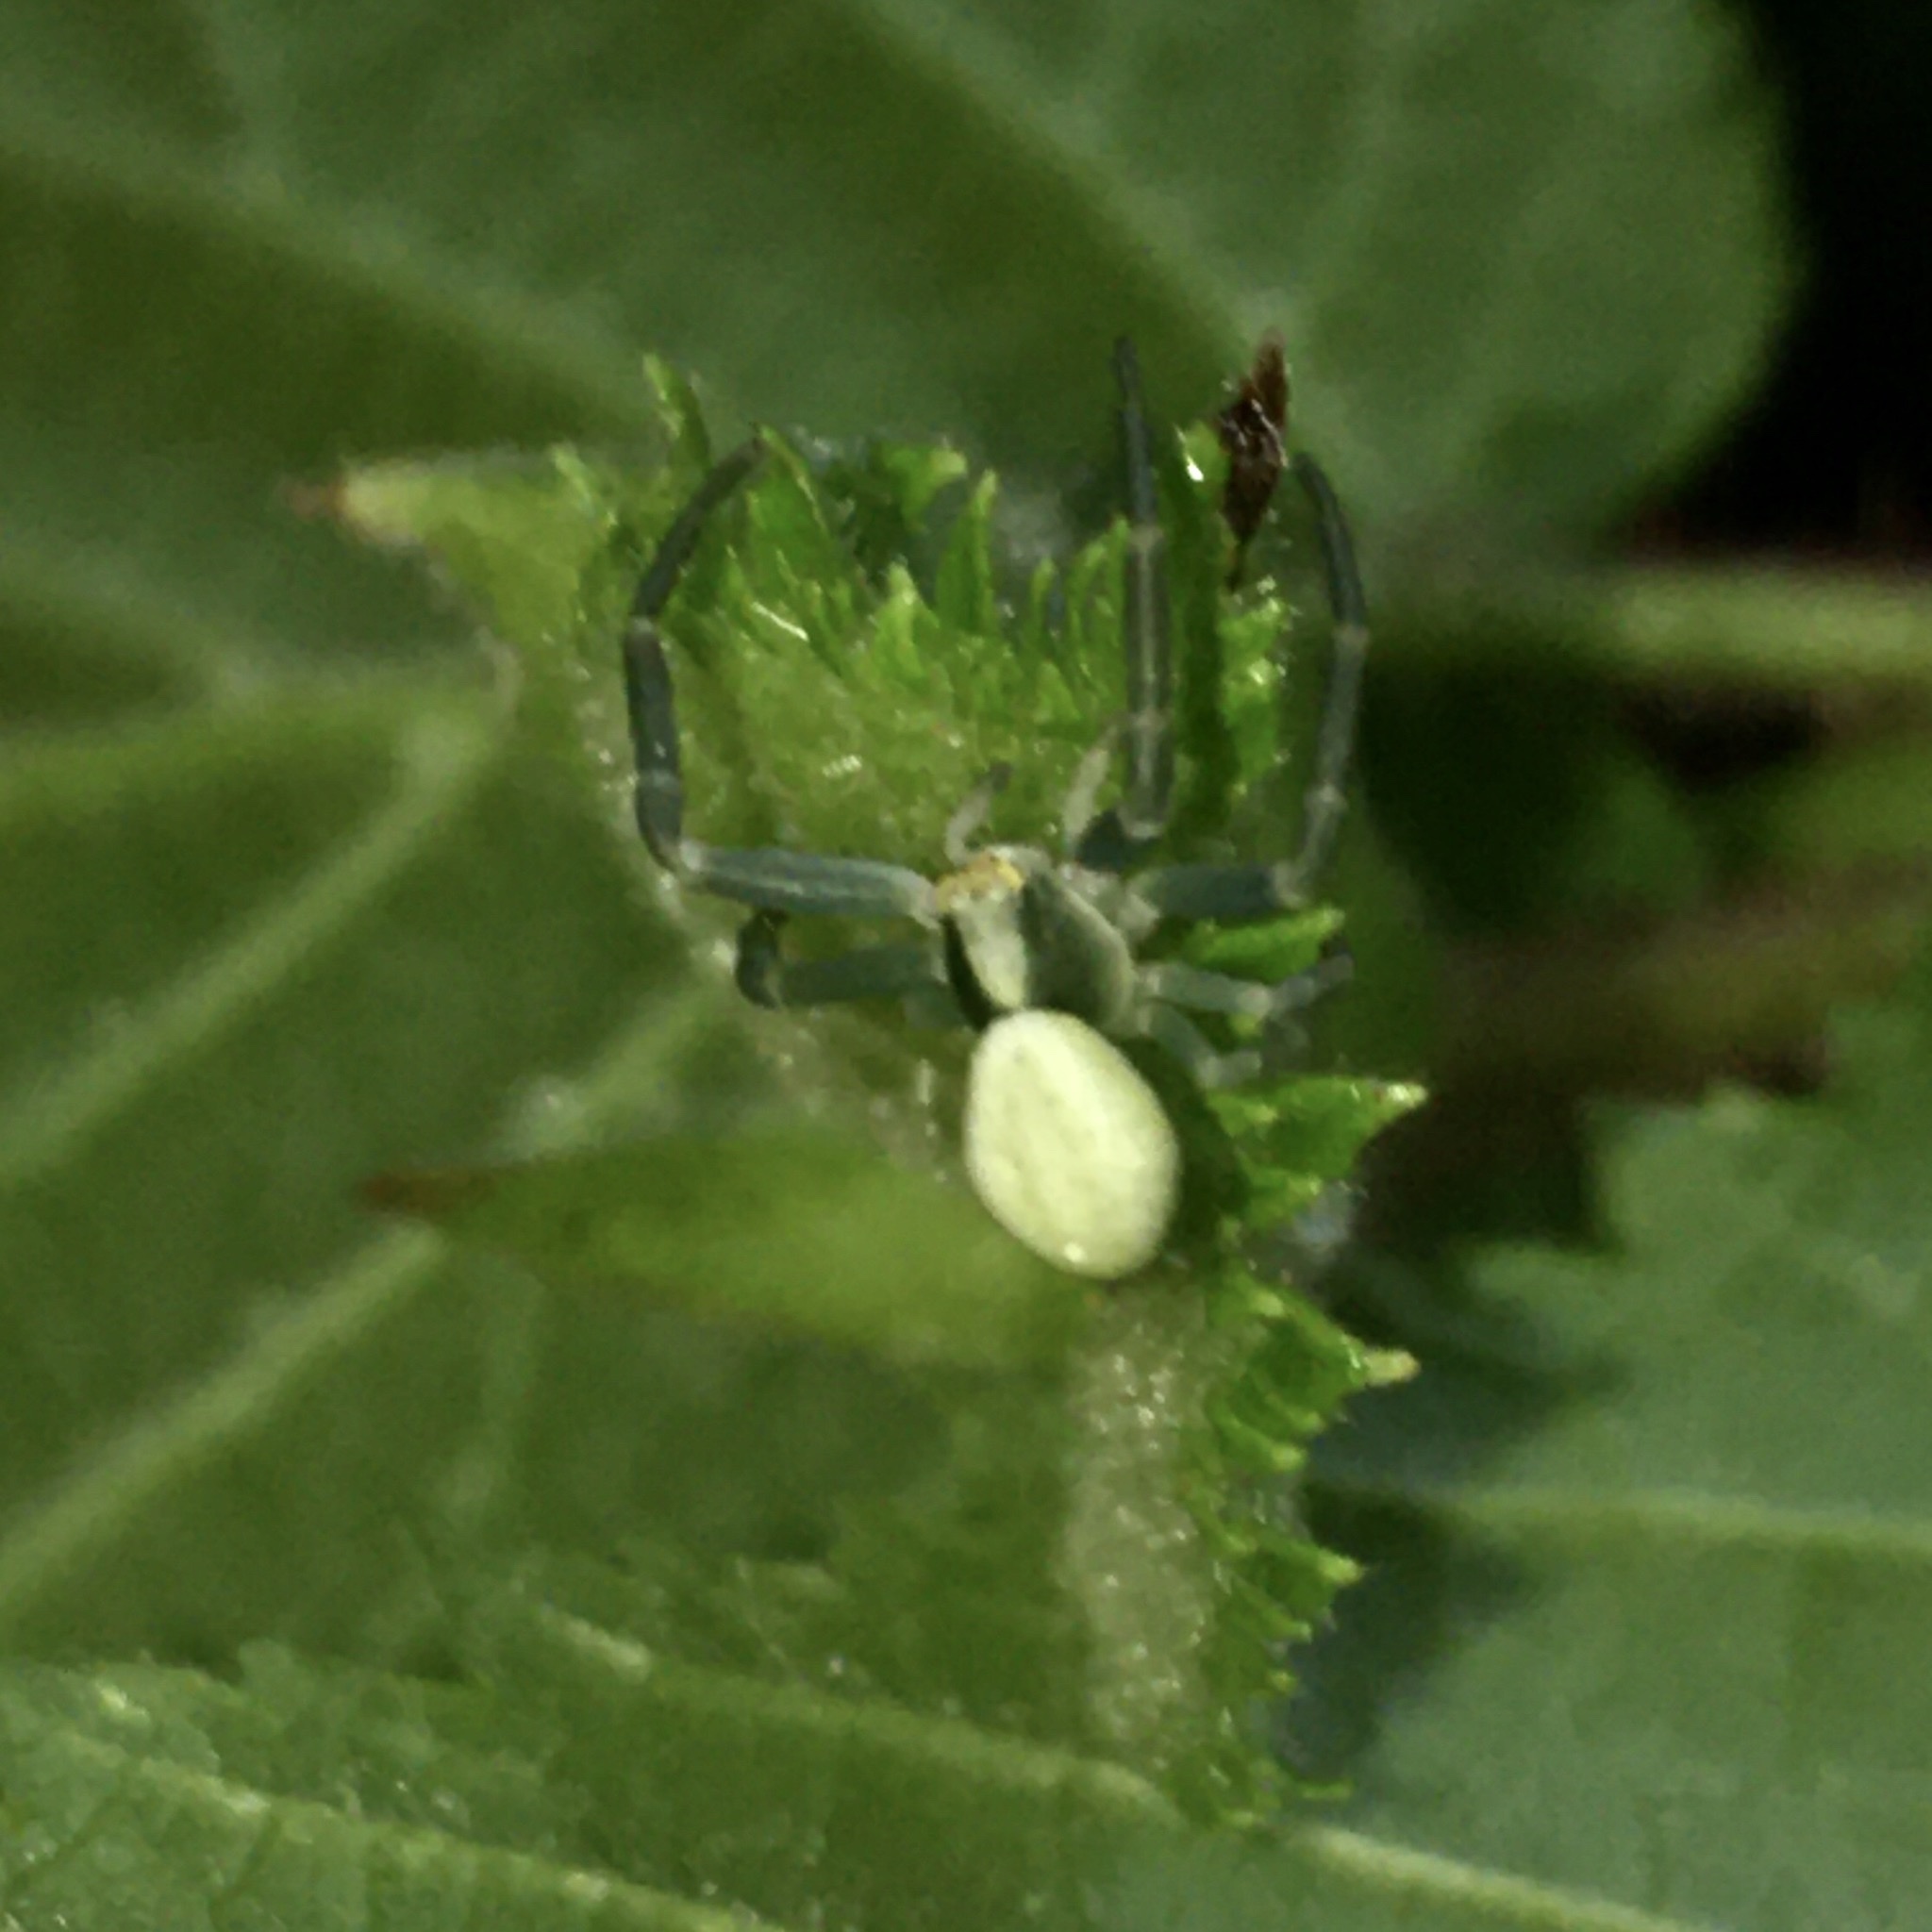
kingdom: Animalia
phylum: Arthropoda
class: Arachnida
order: Araneae
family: Thomisidae
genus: Misumena
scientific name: Misumena vatia
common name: Goldenrod crab spider
